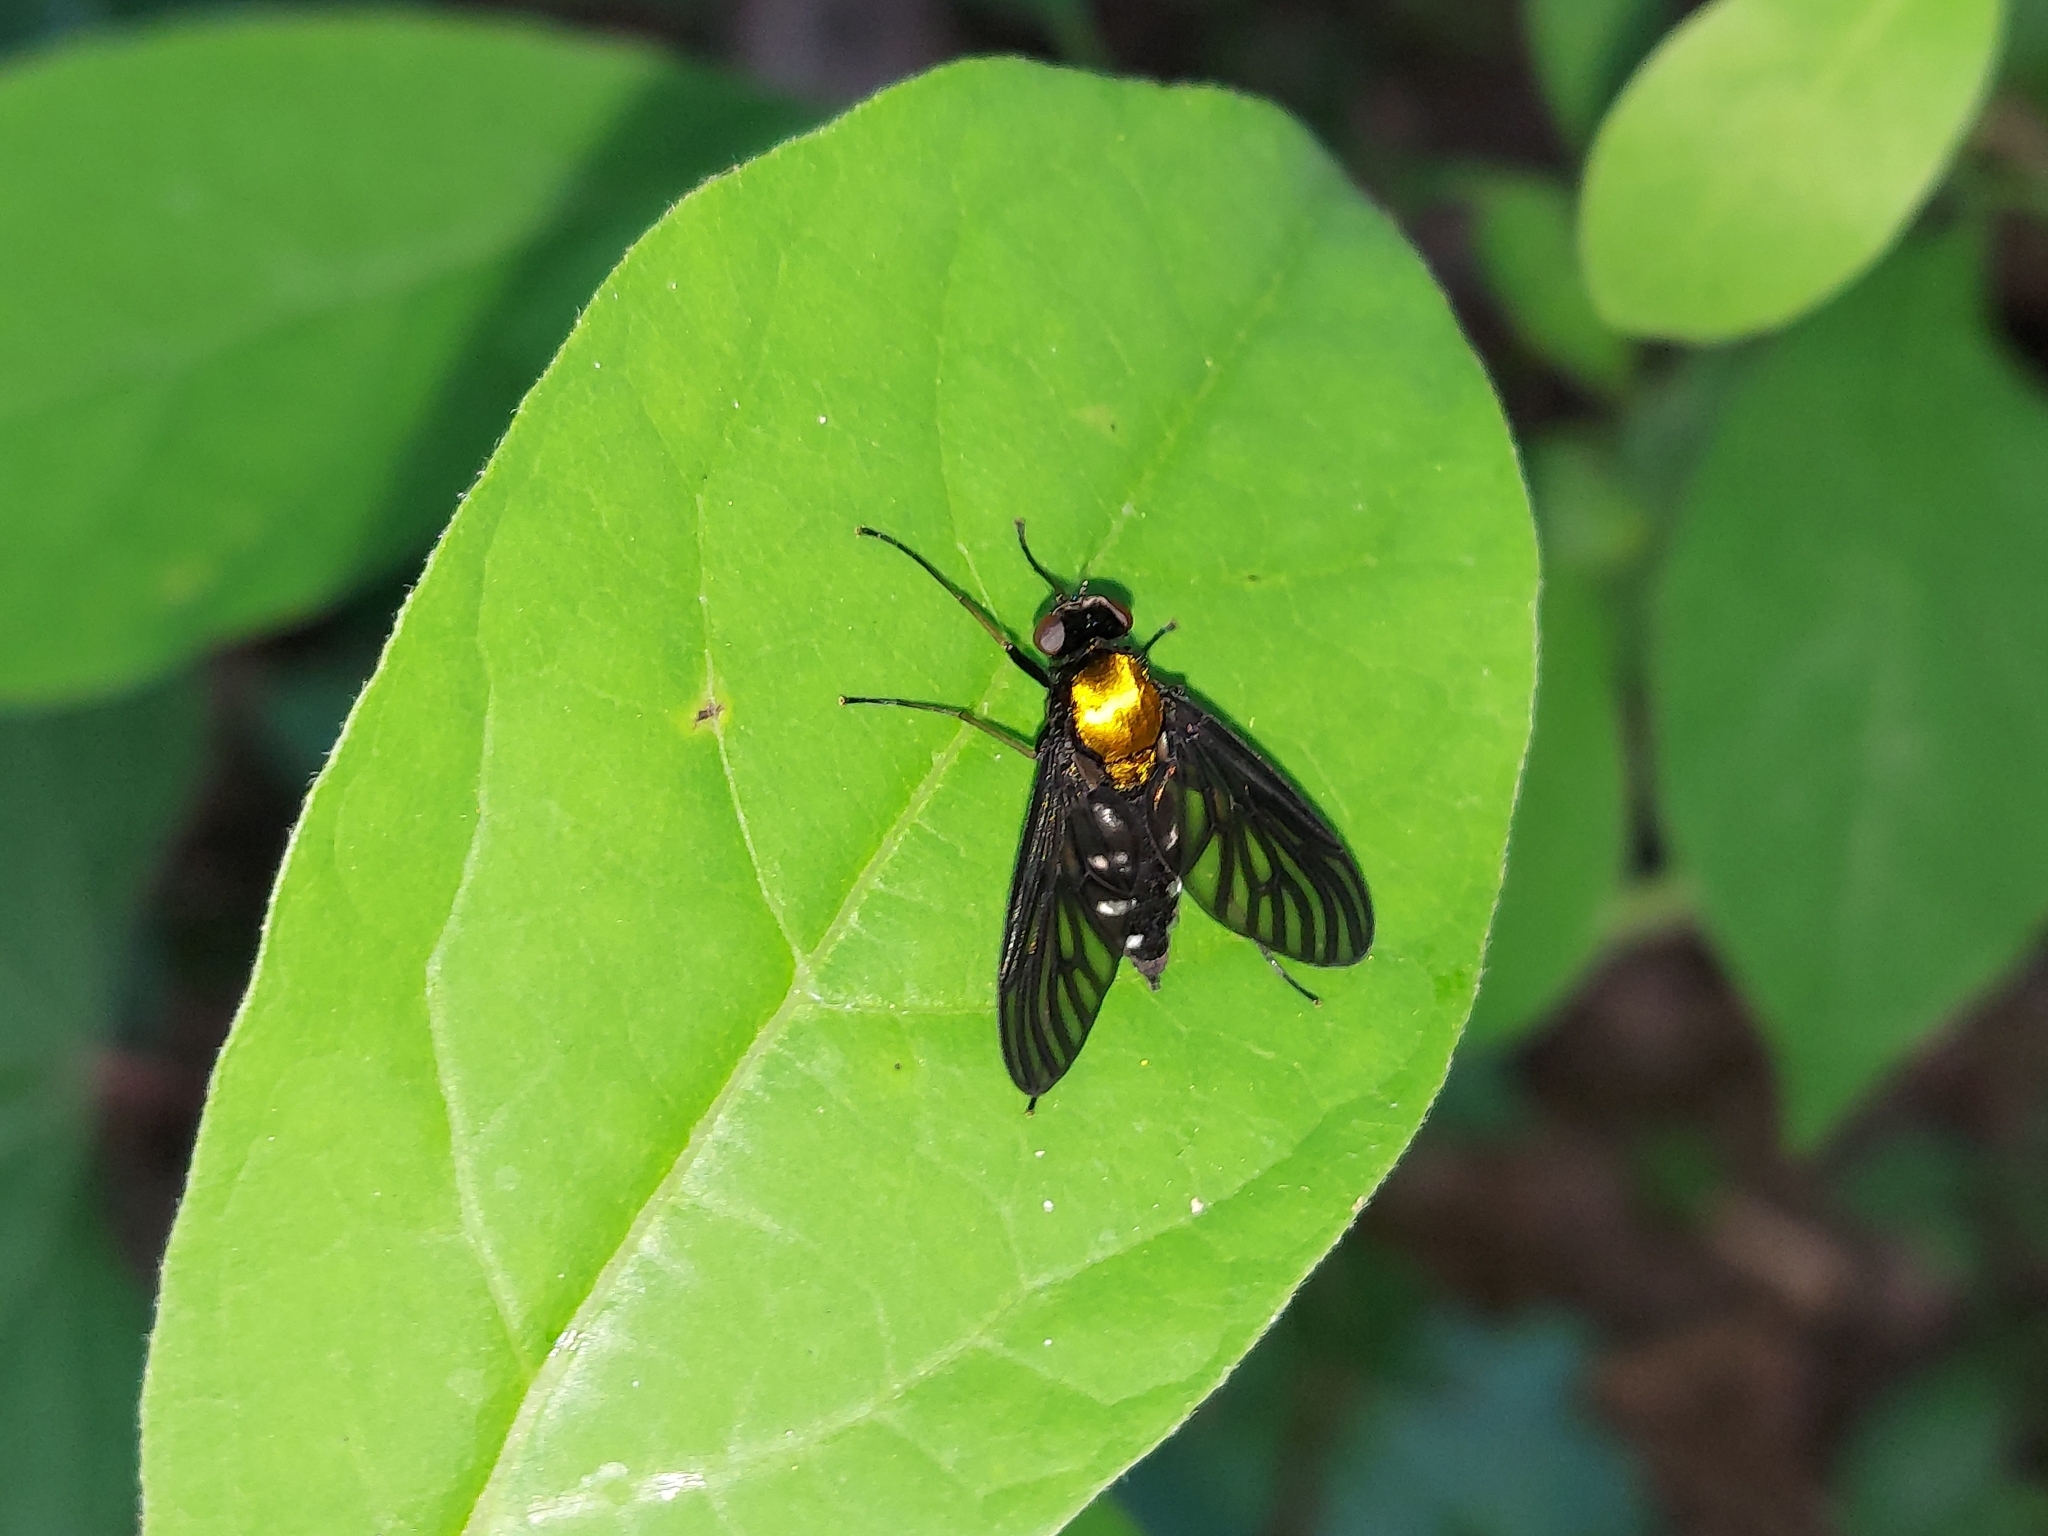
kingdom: Animalia
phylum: Arthropoda
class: Insecta
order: Diptera
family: Rhagionidae
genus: Chrysopilus
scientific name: Chrysopilus thoracicus
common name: Golden-backed snipe fly
